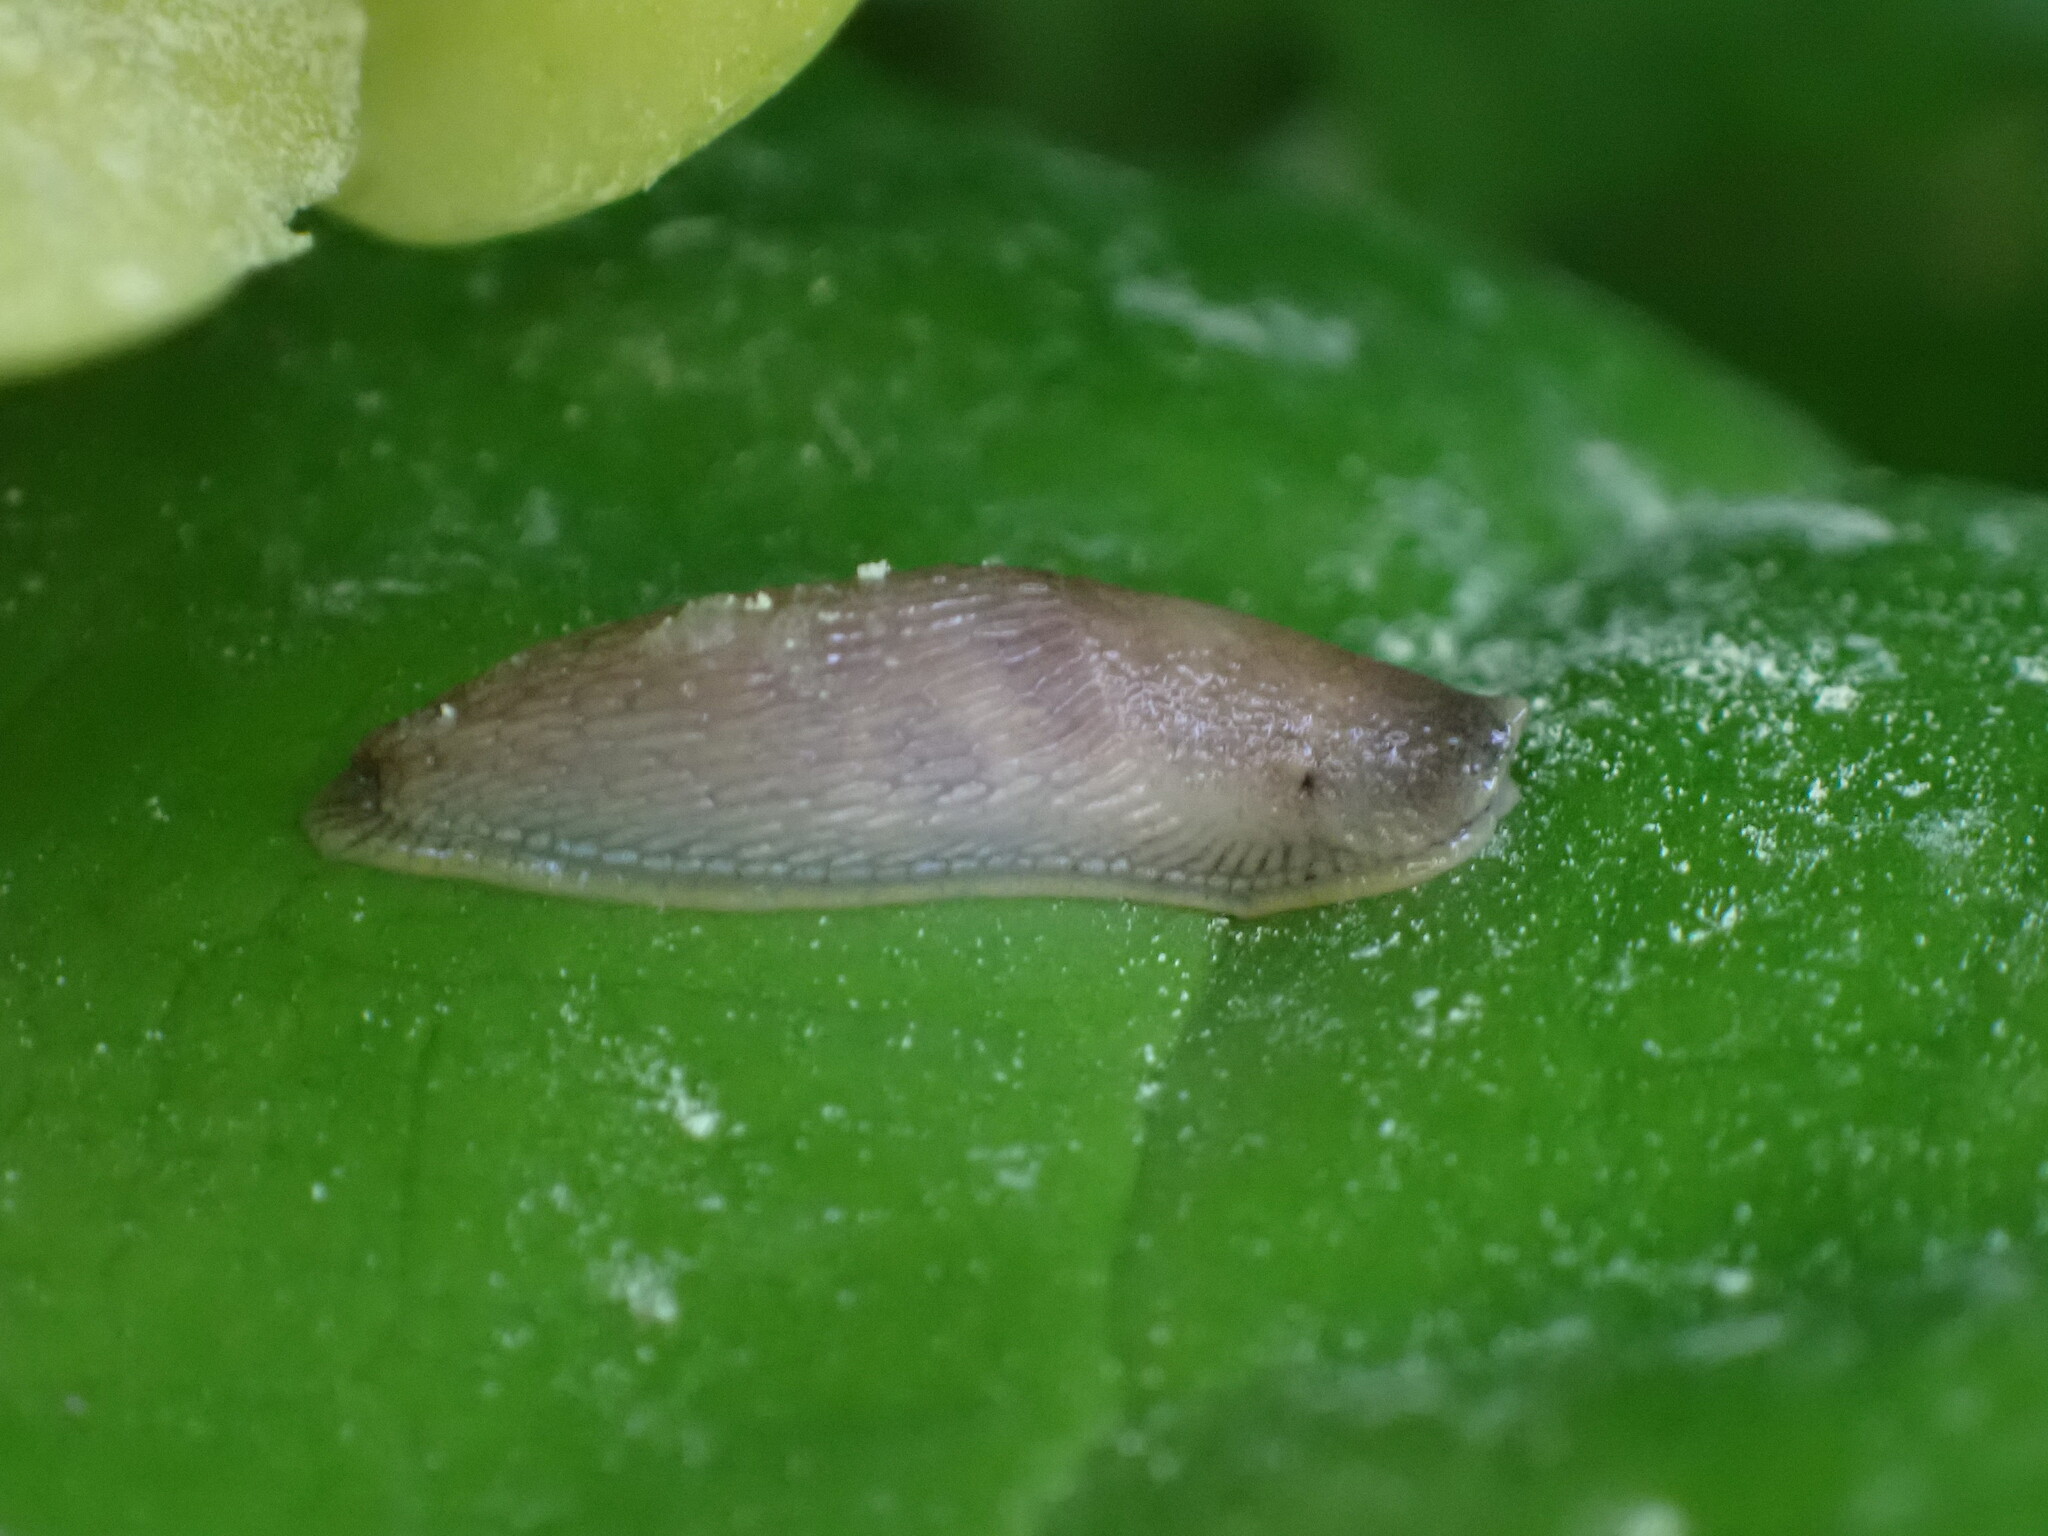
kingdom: Animalia
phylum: Mollusca
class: Gastropoda
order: Stylommatophora
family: Arionidae
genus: Arion
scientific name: Arion
